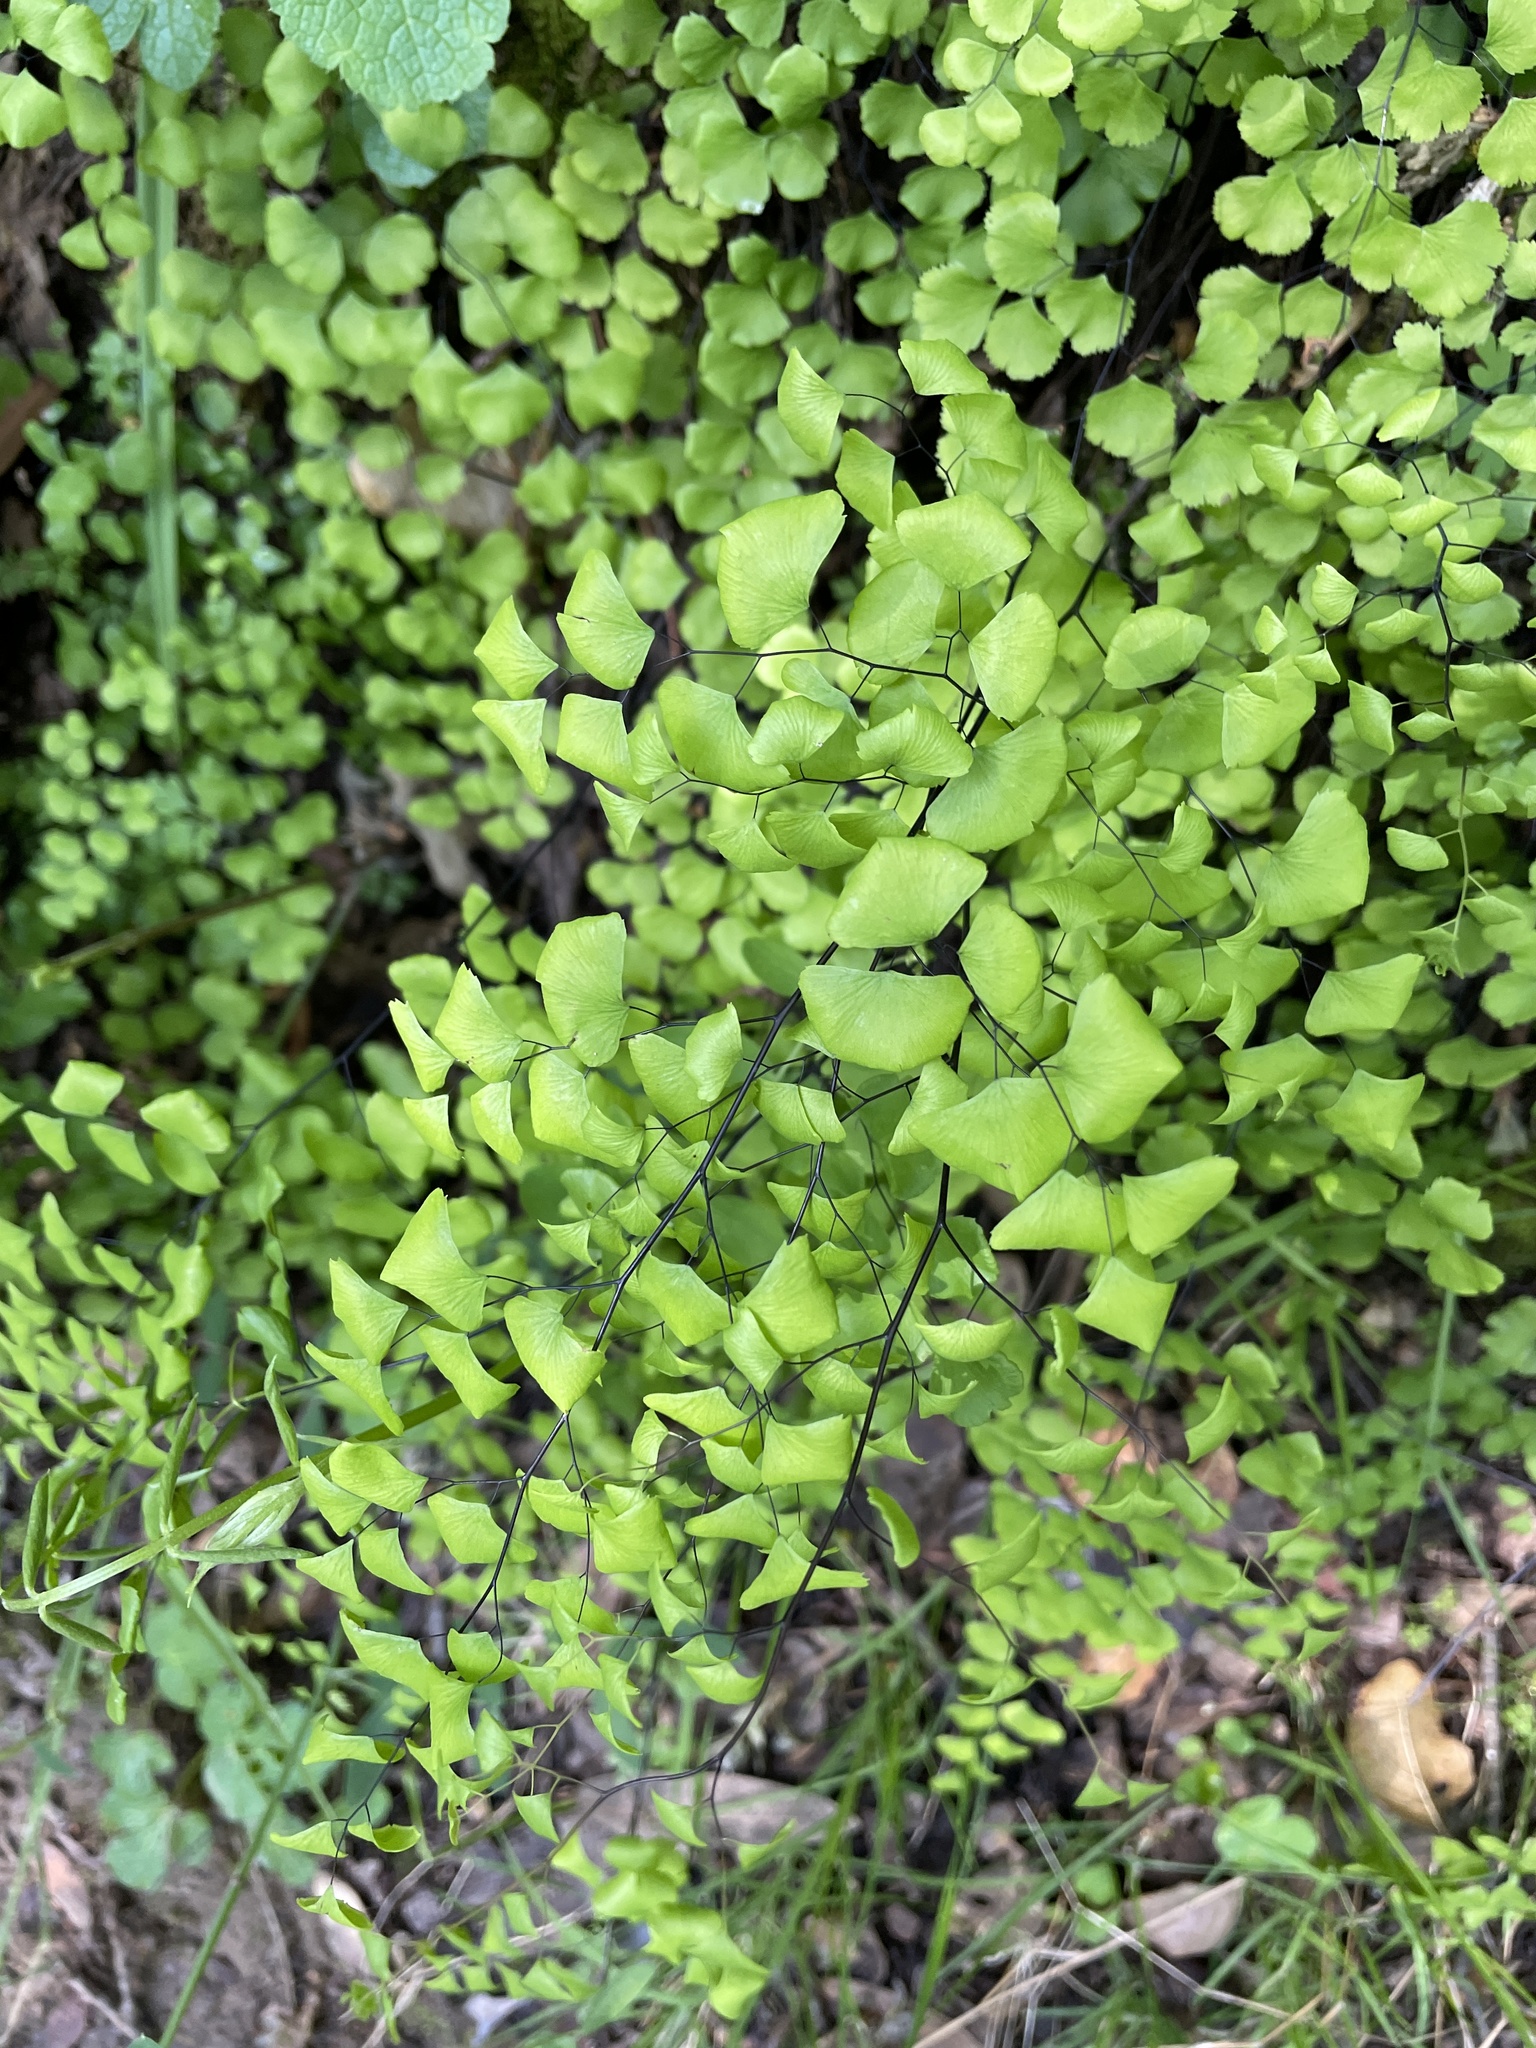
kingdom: Plantae
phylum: Tracheophyta
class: Polypodiopsida
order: Polypodiales
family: Pteridaceae
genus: Adiantum
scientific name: Adiantum jordanii
